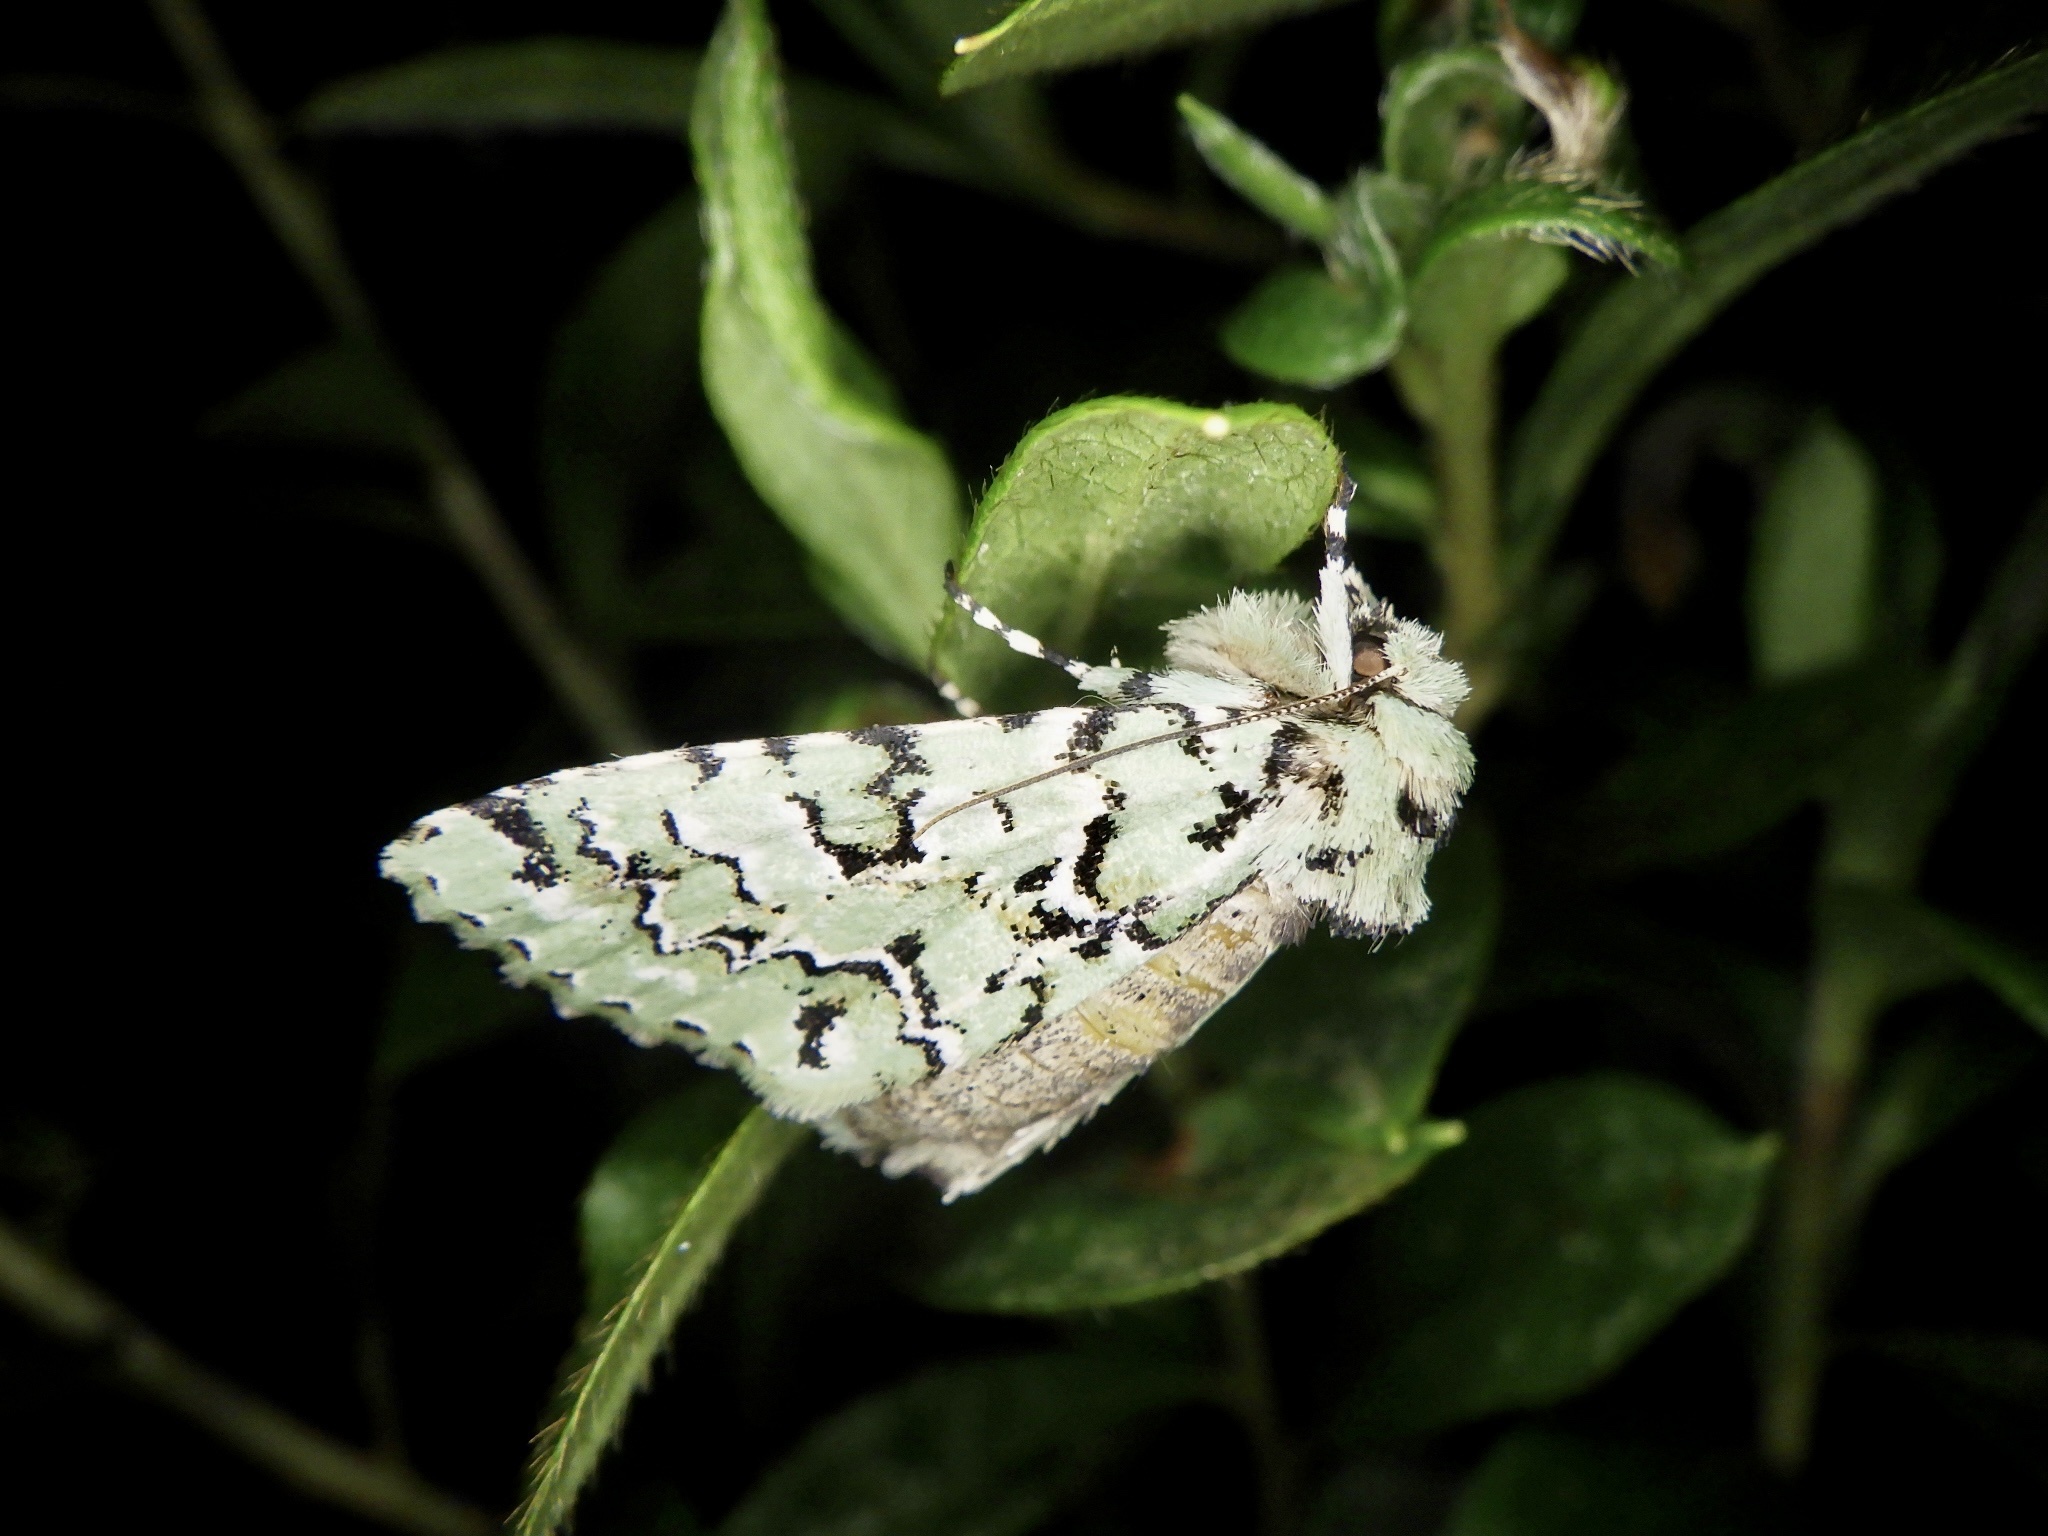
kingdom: Animalia
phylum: Arthropoda
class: Insecta
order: Lepidoptera
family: Noctuidae
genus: Daseochaeta
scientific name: Daseochaeta viridis
